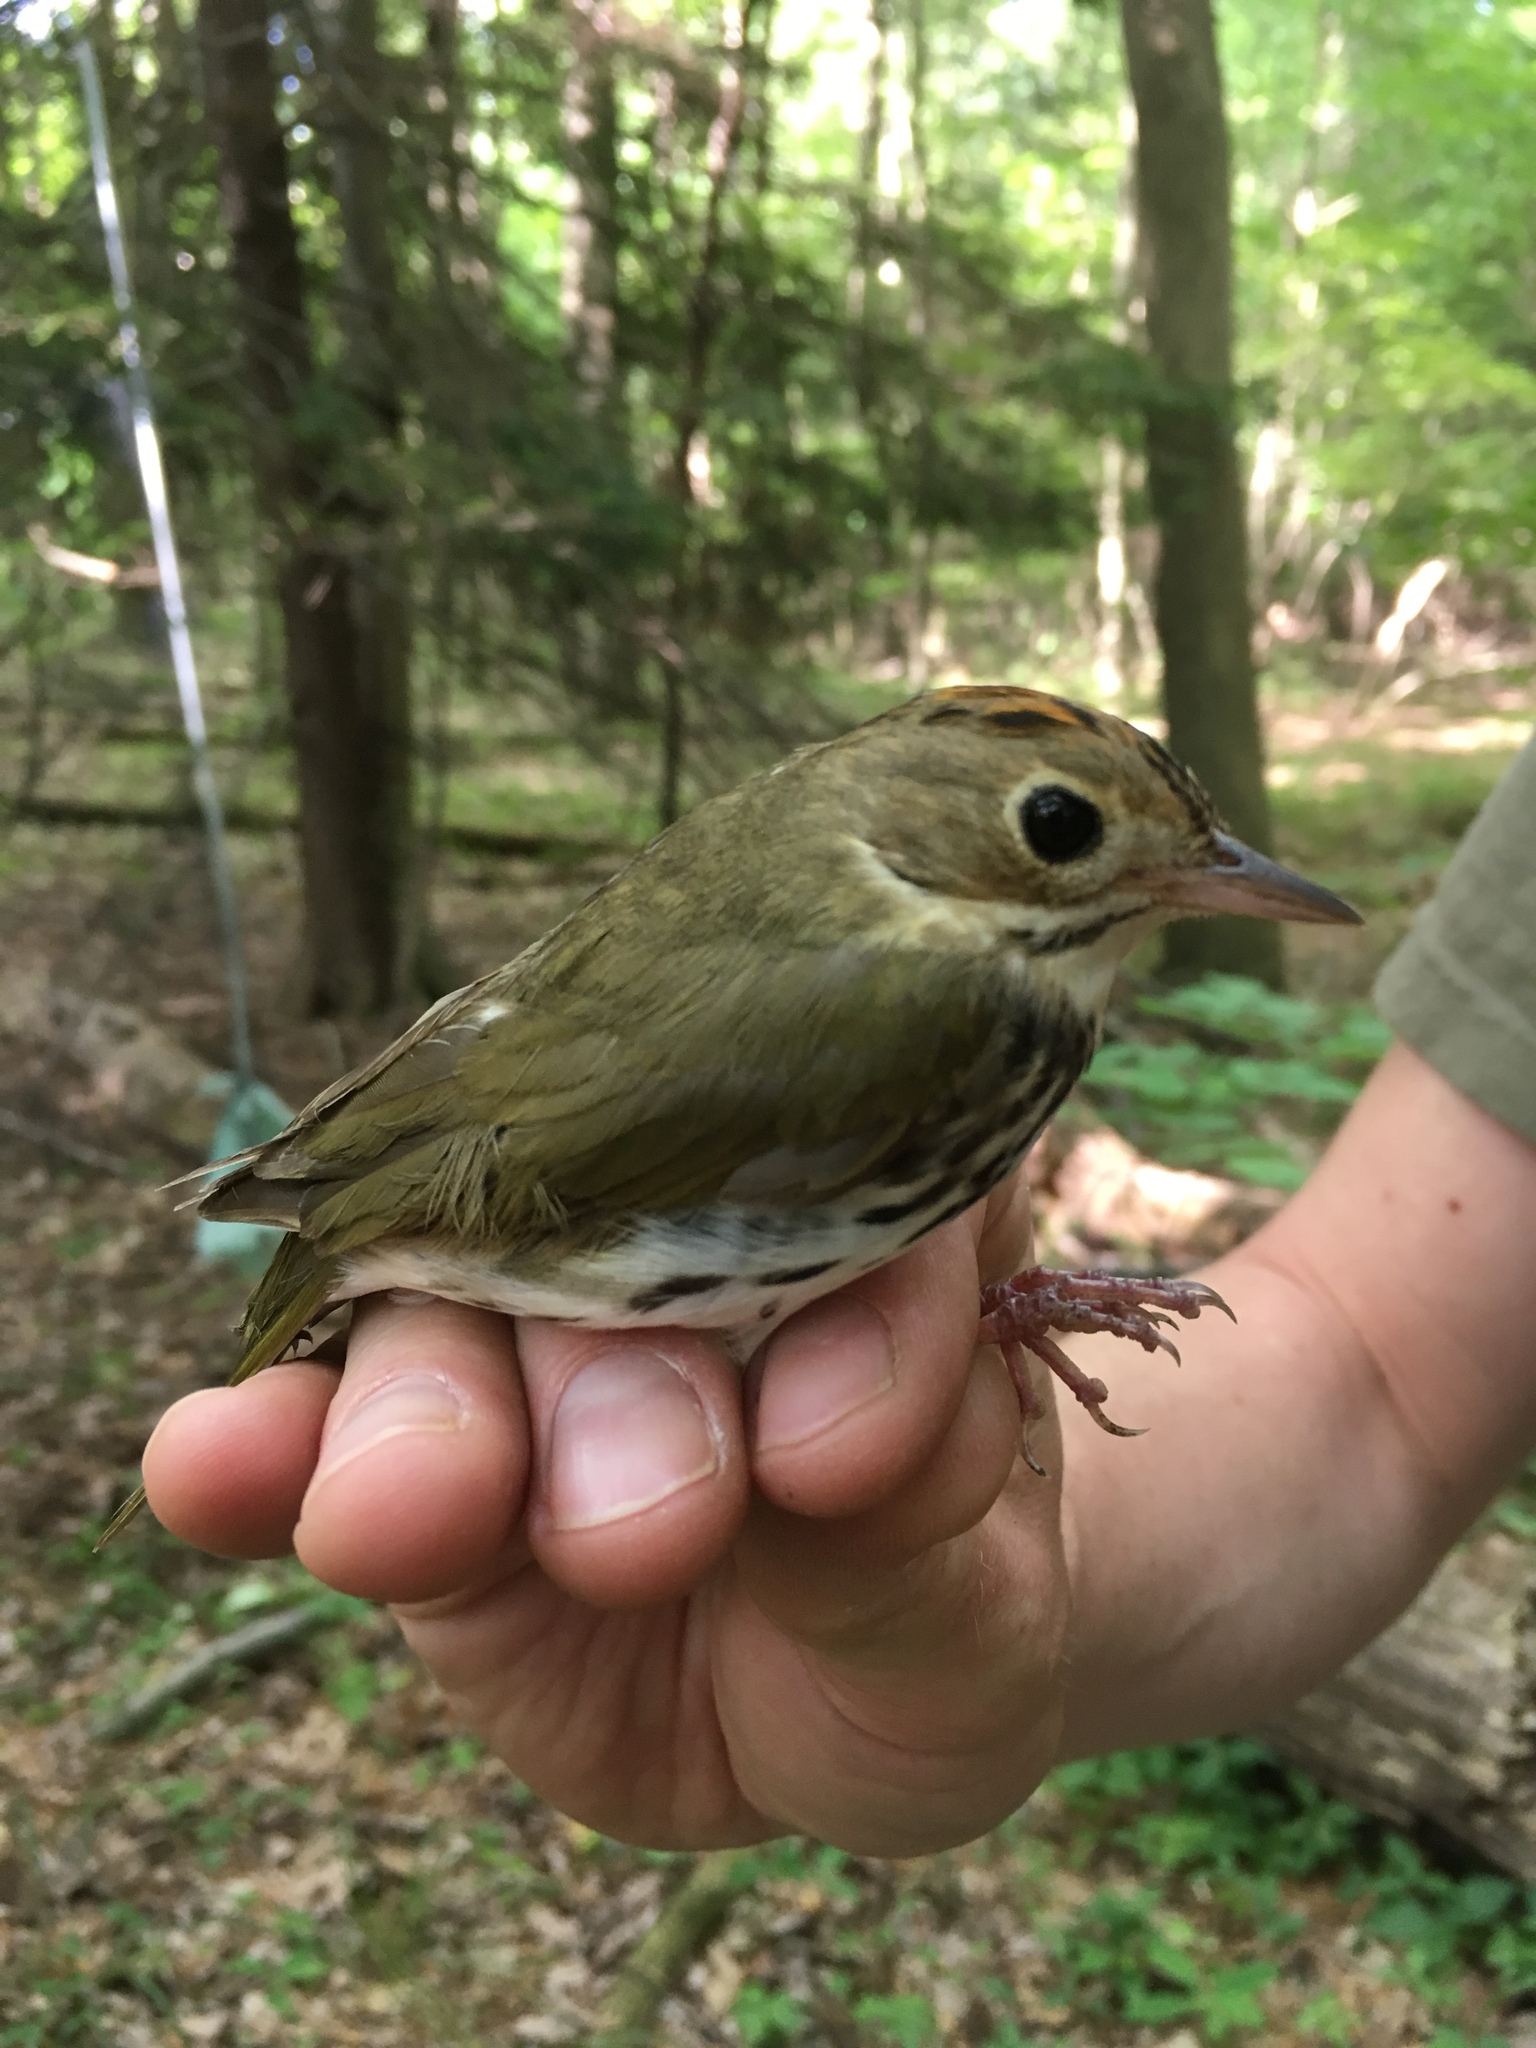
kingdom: Animalia
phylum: Chordata
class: Aves
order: Passeriformes
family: Parulidae
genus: Seiurus
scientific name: Seiurus aurocapilla
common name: Ovenbird
